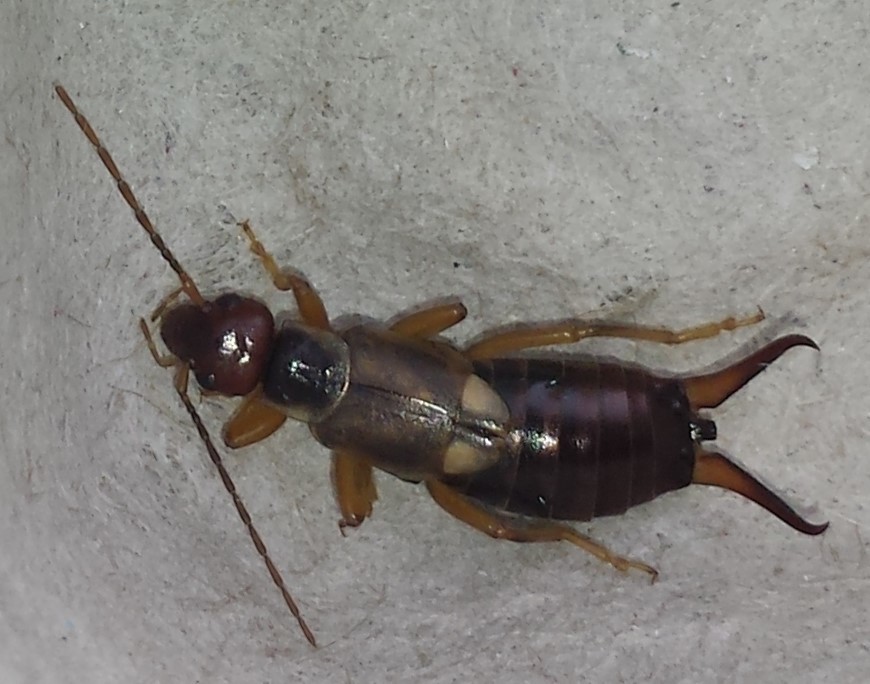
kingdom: Animalia
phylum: Arthropoda
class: Insecta
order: Dermaptera
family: Forficulidae
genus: Forficula
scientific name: Forficula
